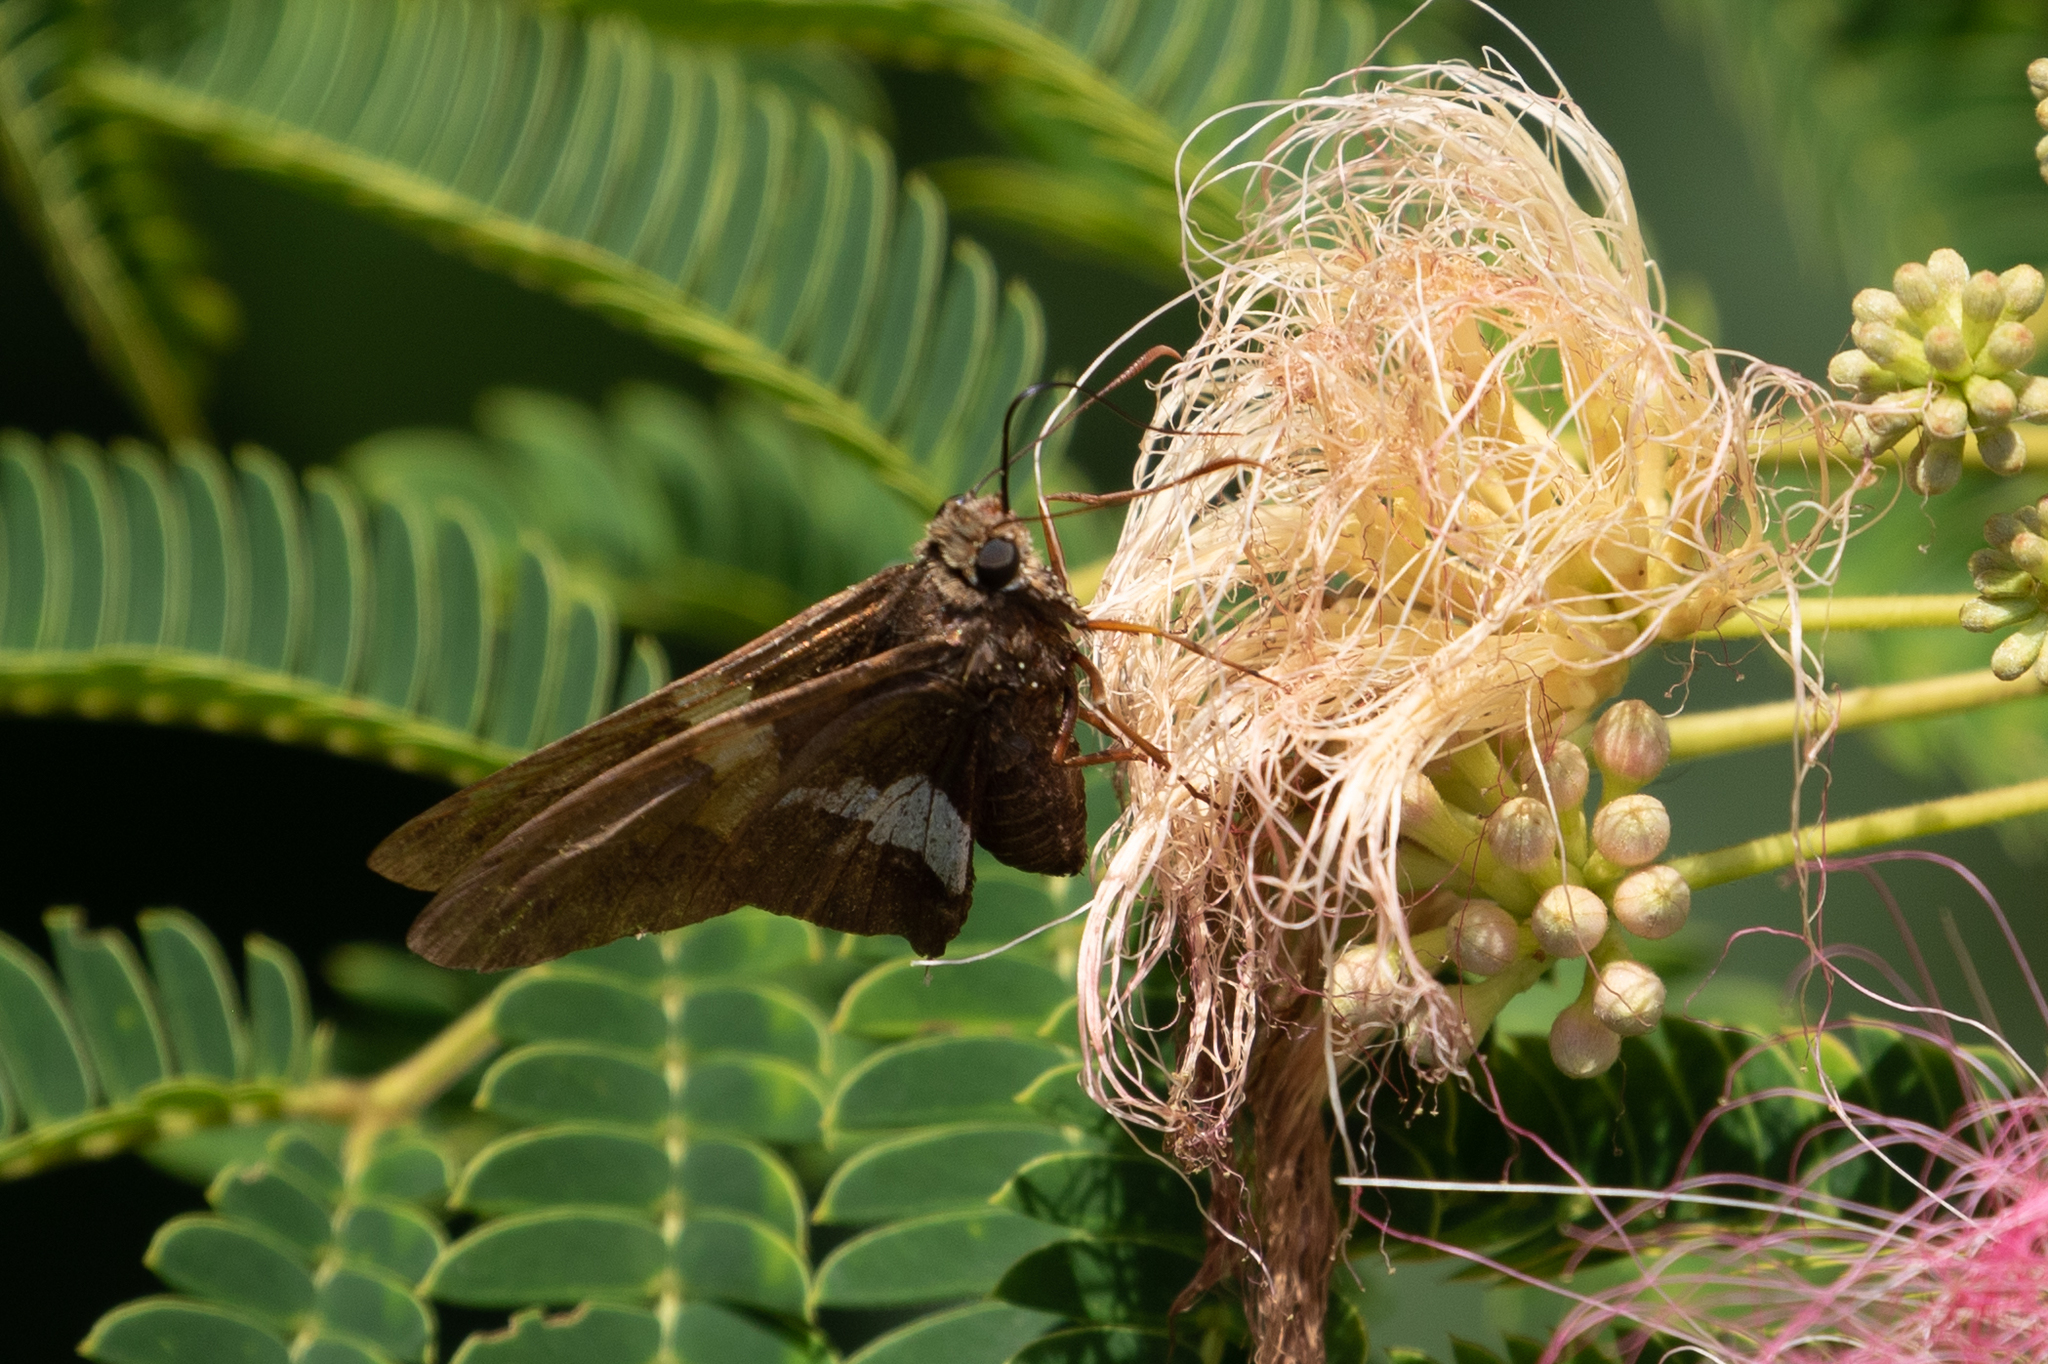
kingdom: Animalia
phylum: Arthropoda
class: Insecta
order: Lepidoptera
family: Hesperiidae
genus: Epargyreus
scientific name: Epargyreus clarus
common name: Silver-spotted skipper
